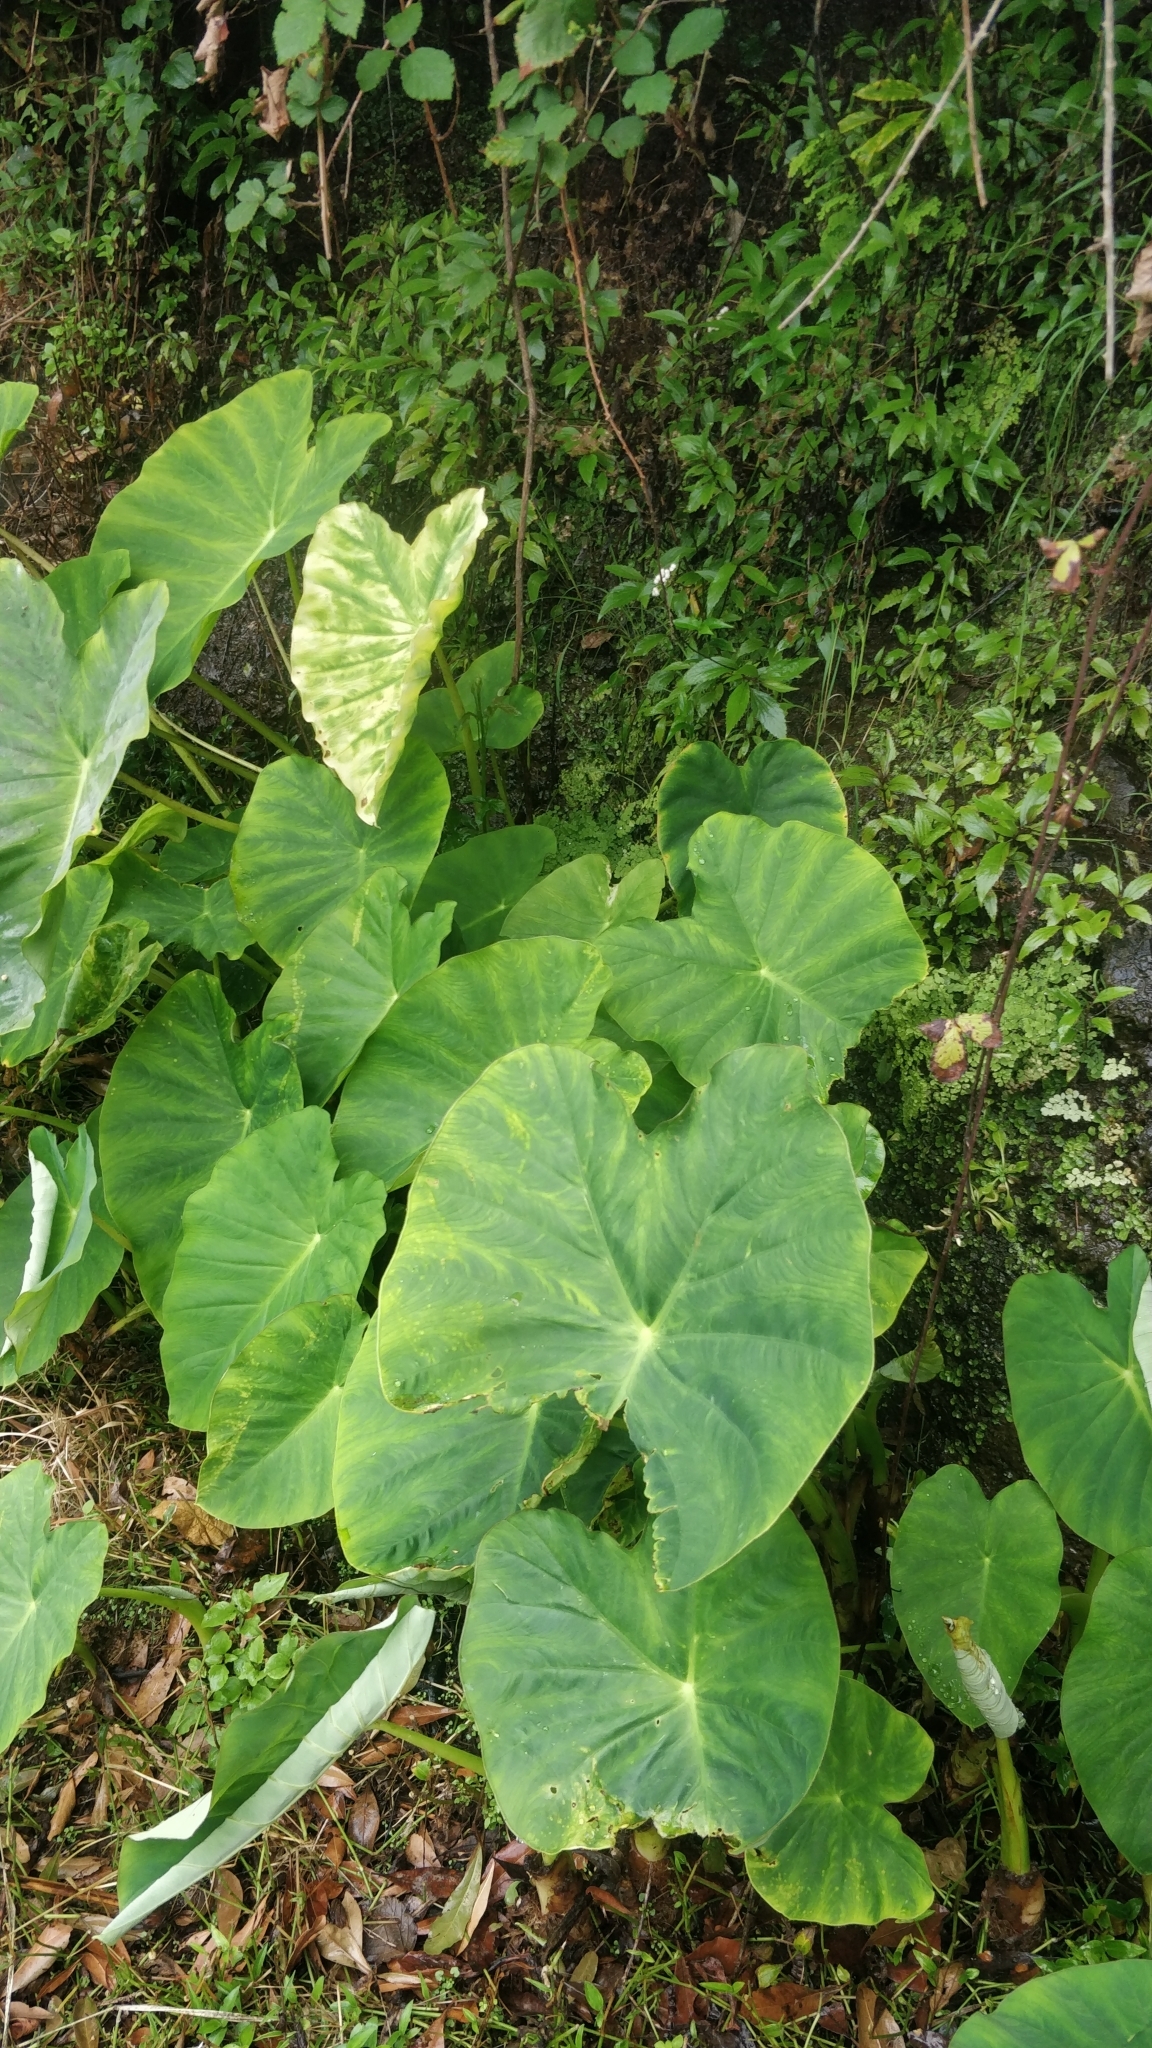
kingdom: Plantae
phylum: Tracheophyta
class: Liliopsida
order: Alismatales
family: Araceae
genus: Colocasia
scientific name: Colocasia esculenta
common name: Taro
